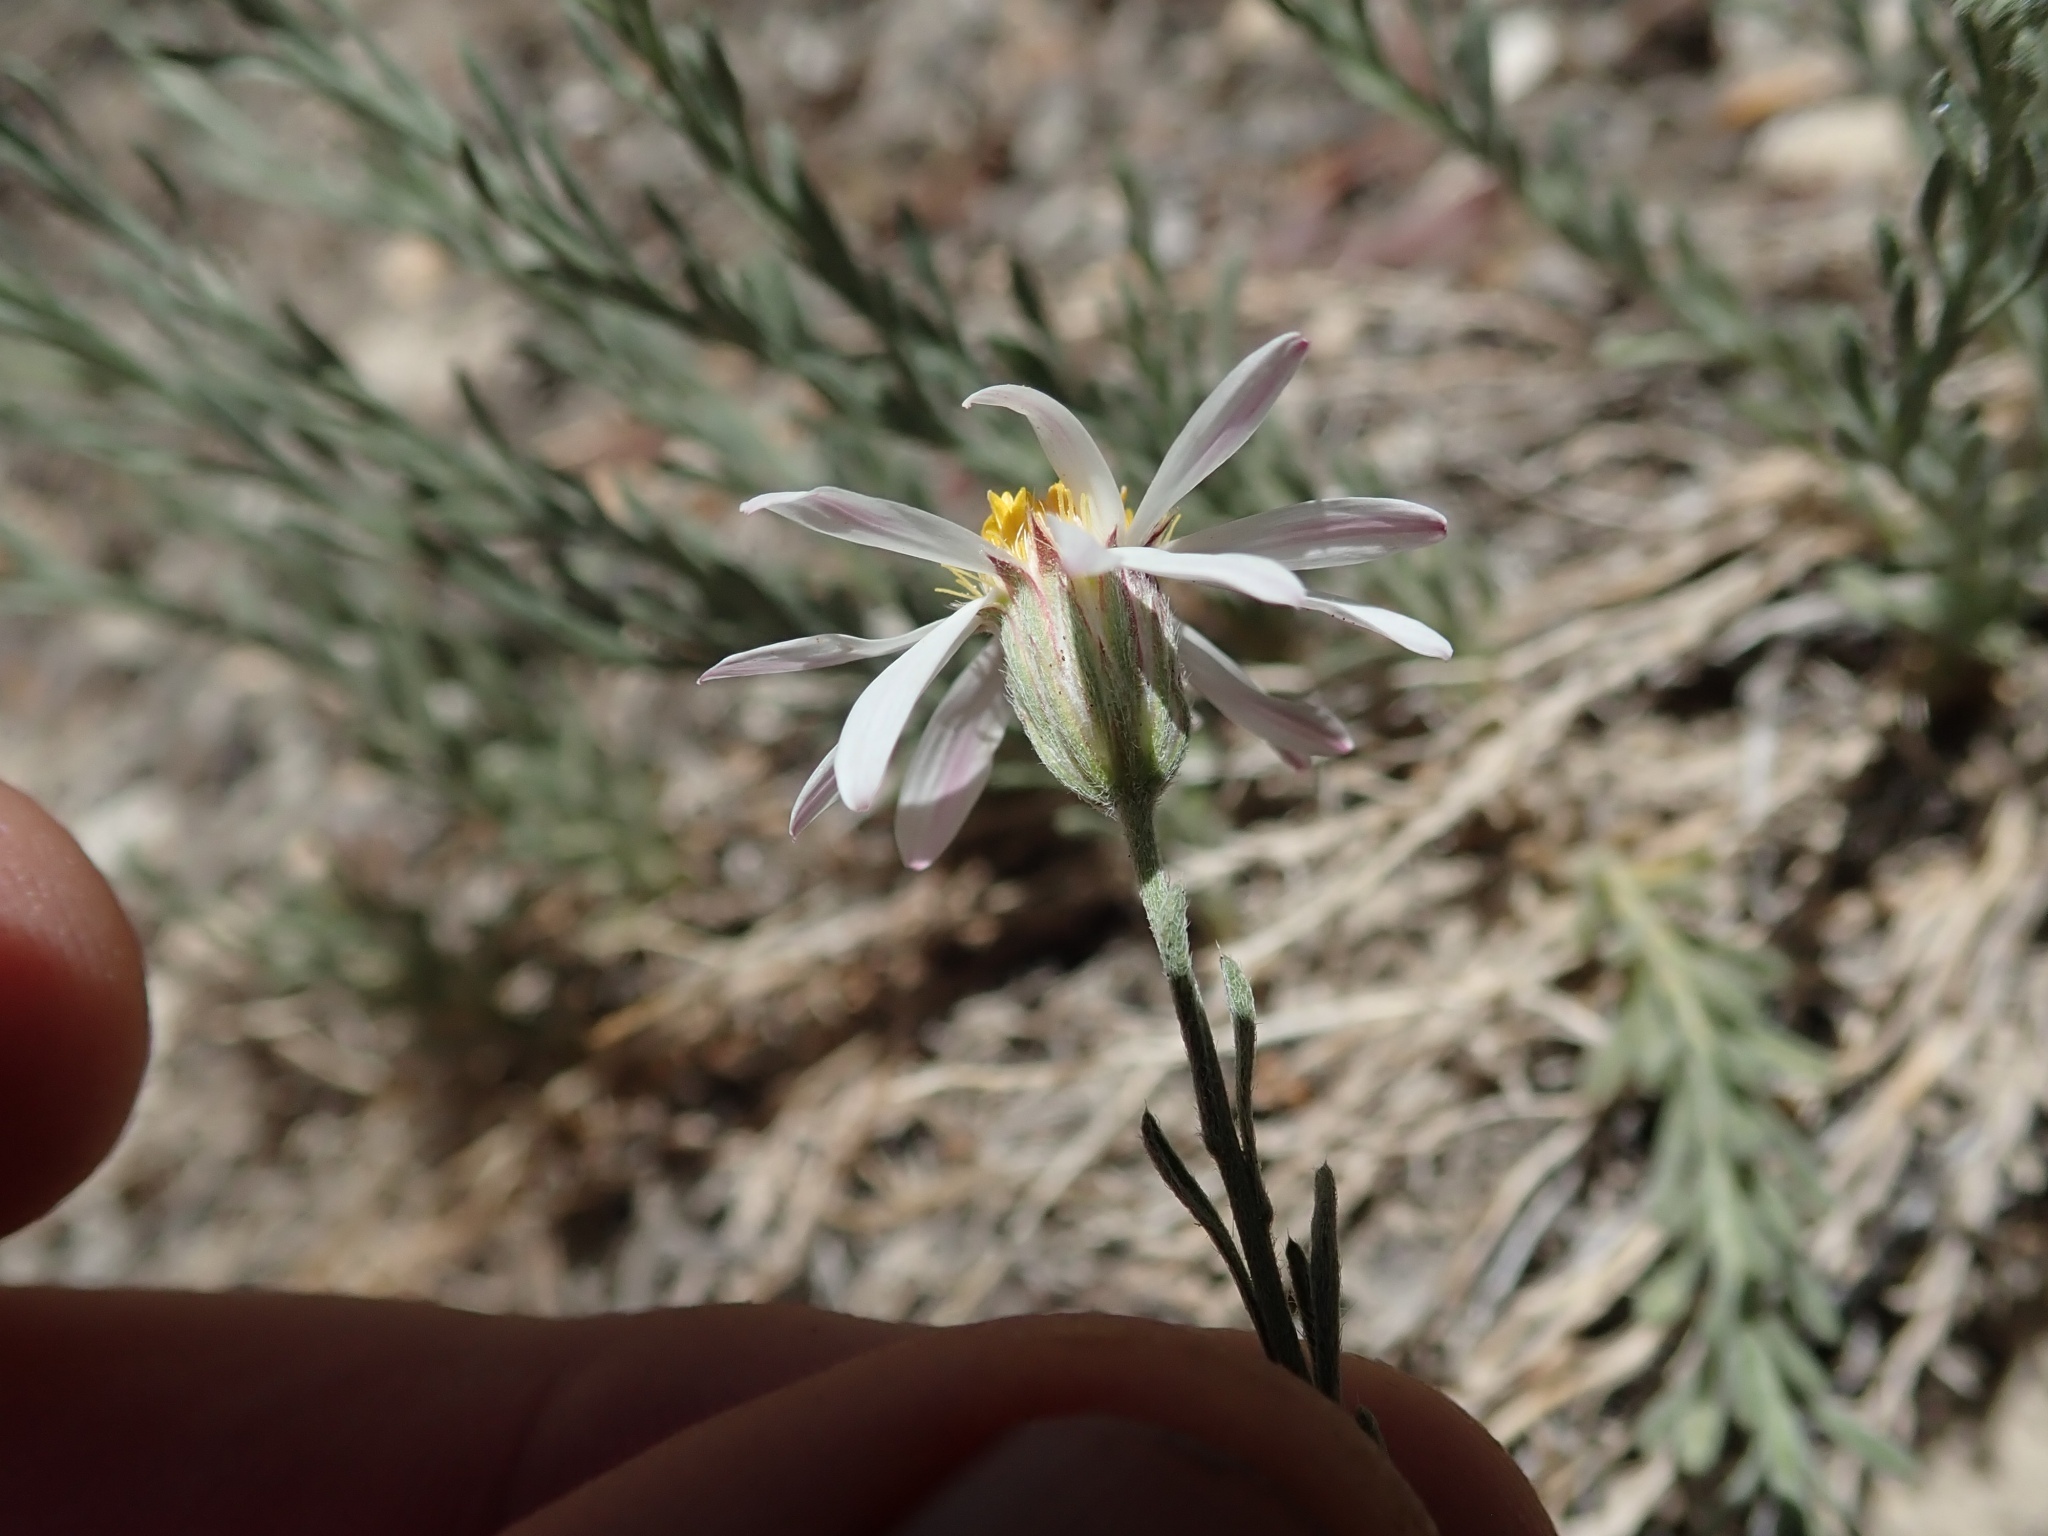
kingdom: Plantae
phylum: Tracheophyta
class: Magnoliopsida
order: Asterales
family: Asteraceae
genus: Chaetopappa
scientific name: Chaetopappa ericoides
